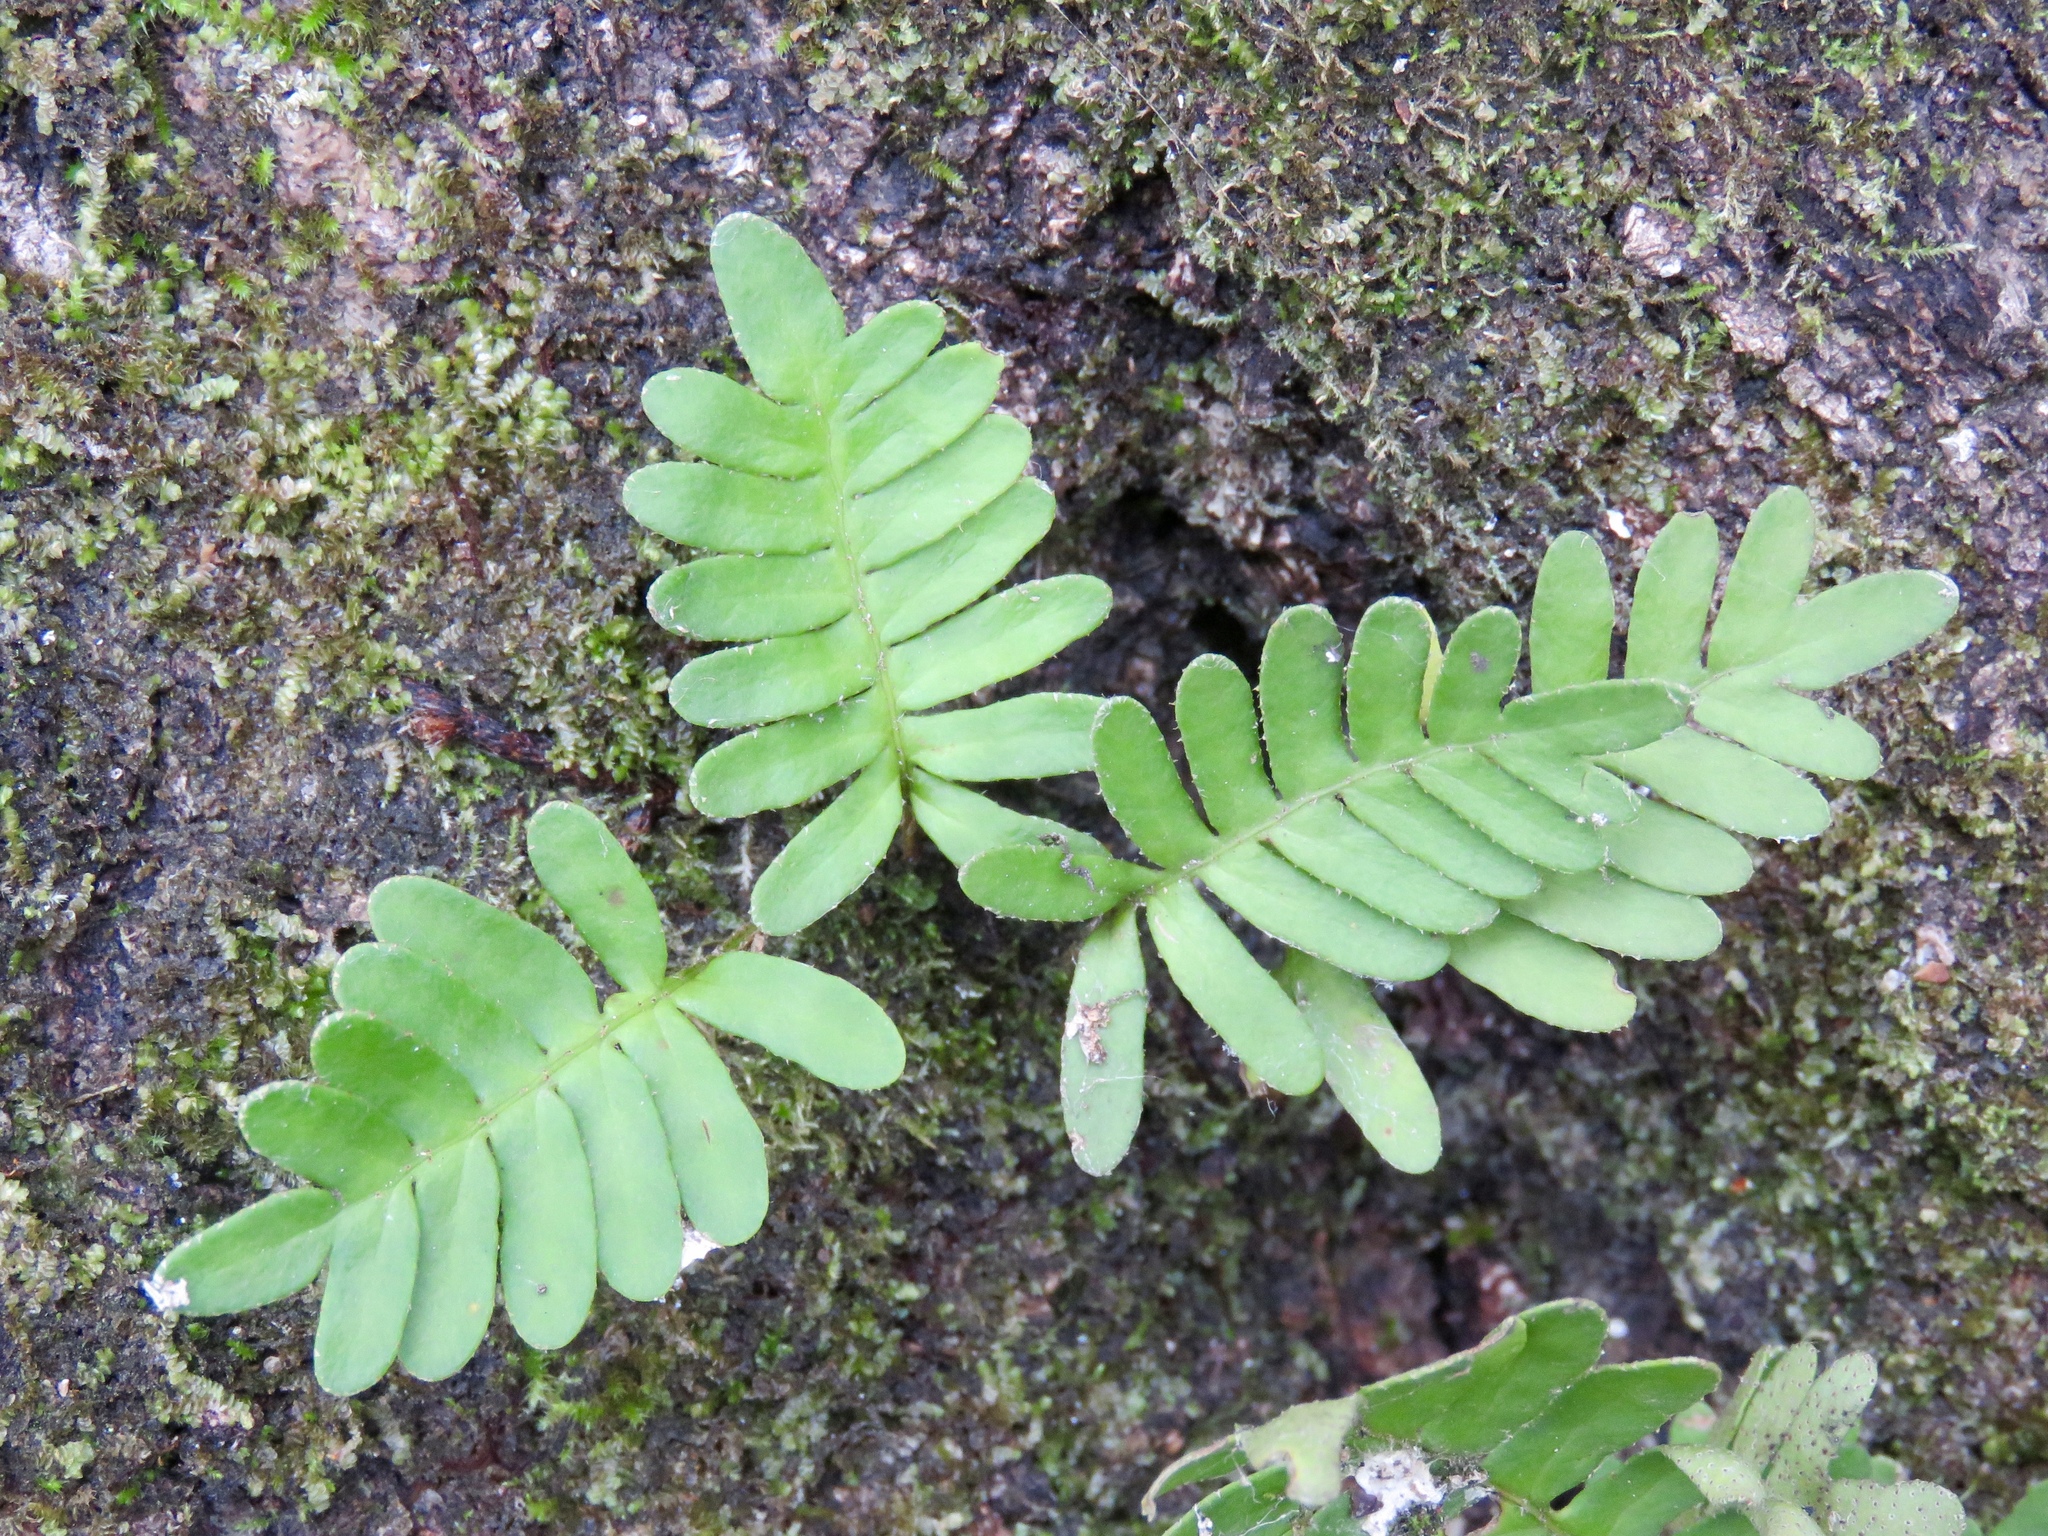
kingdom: Plantae
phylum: Tracheophyta
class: Polypodiopsida
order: Polypodiales
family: Polypodiaceae
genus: Pleopeltis
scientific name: Pleopeltis michauxiana
